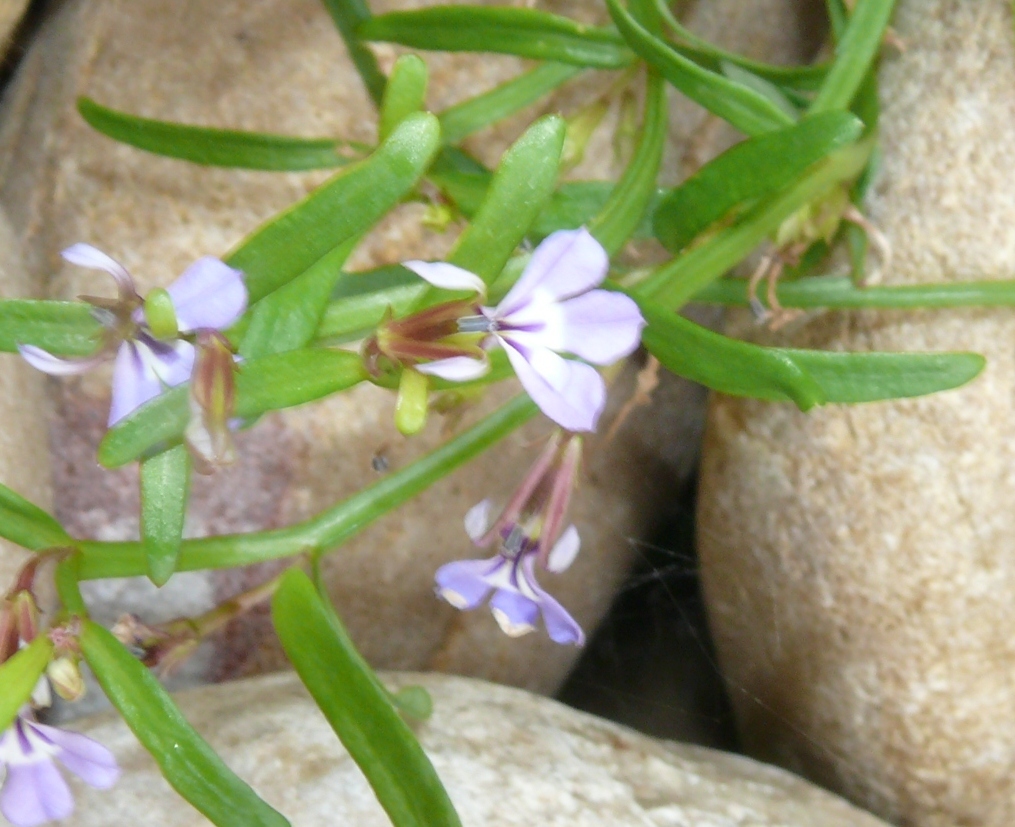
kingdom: Plantae
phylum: Tracheophyta
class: Magnoliopsida
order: Asterales
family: Campanulaceae
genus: Lobelia
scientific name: Lobelia anceps
